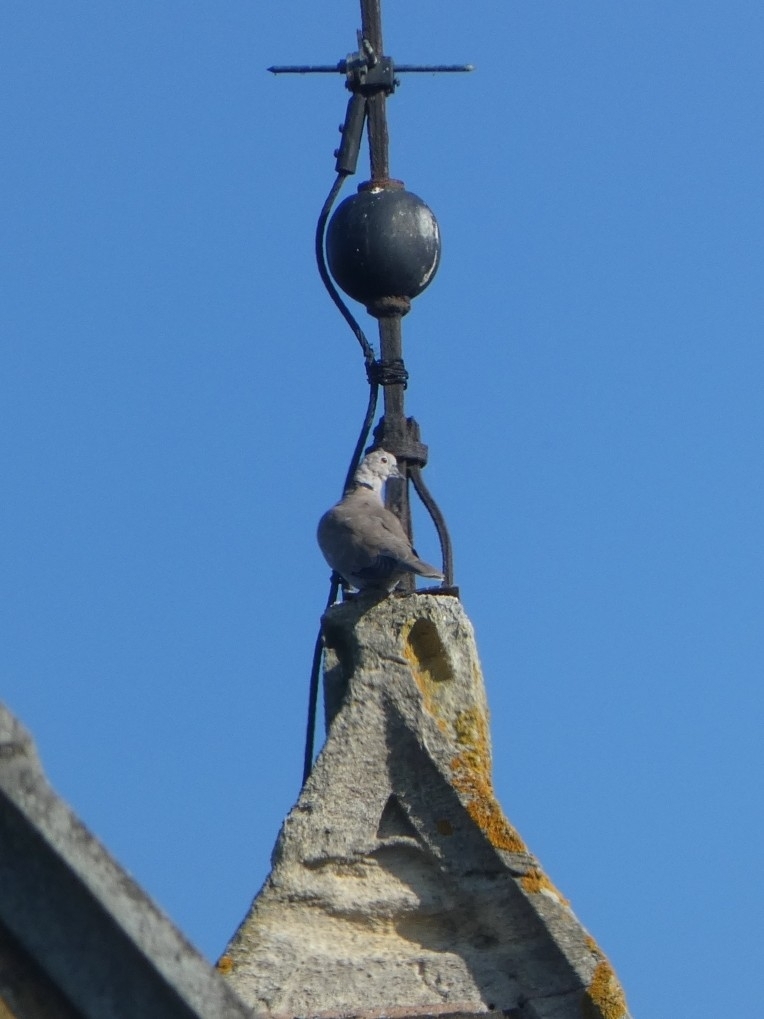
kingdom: Animalia
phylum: Chordata
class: Aves
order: Columbiformes
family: Columbidae
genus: Streptopelia
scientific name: Streptopelia decaocto
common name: Eurasian collared dove
